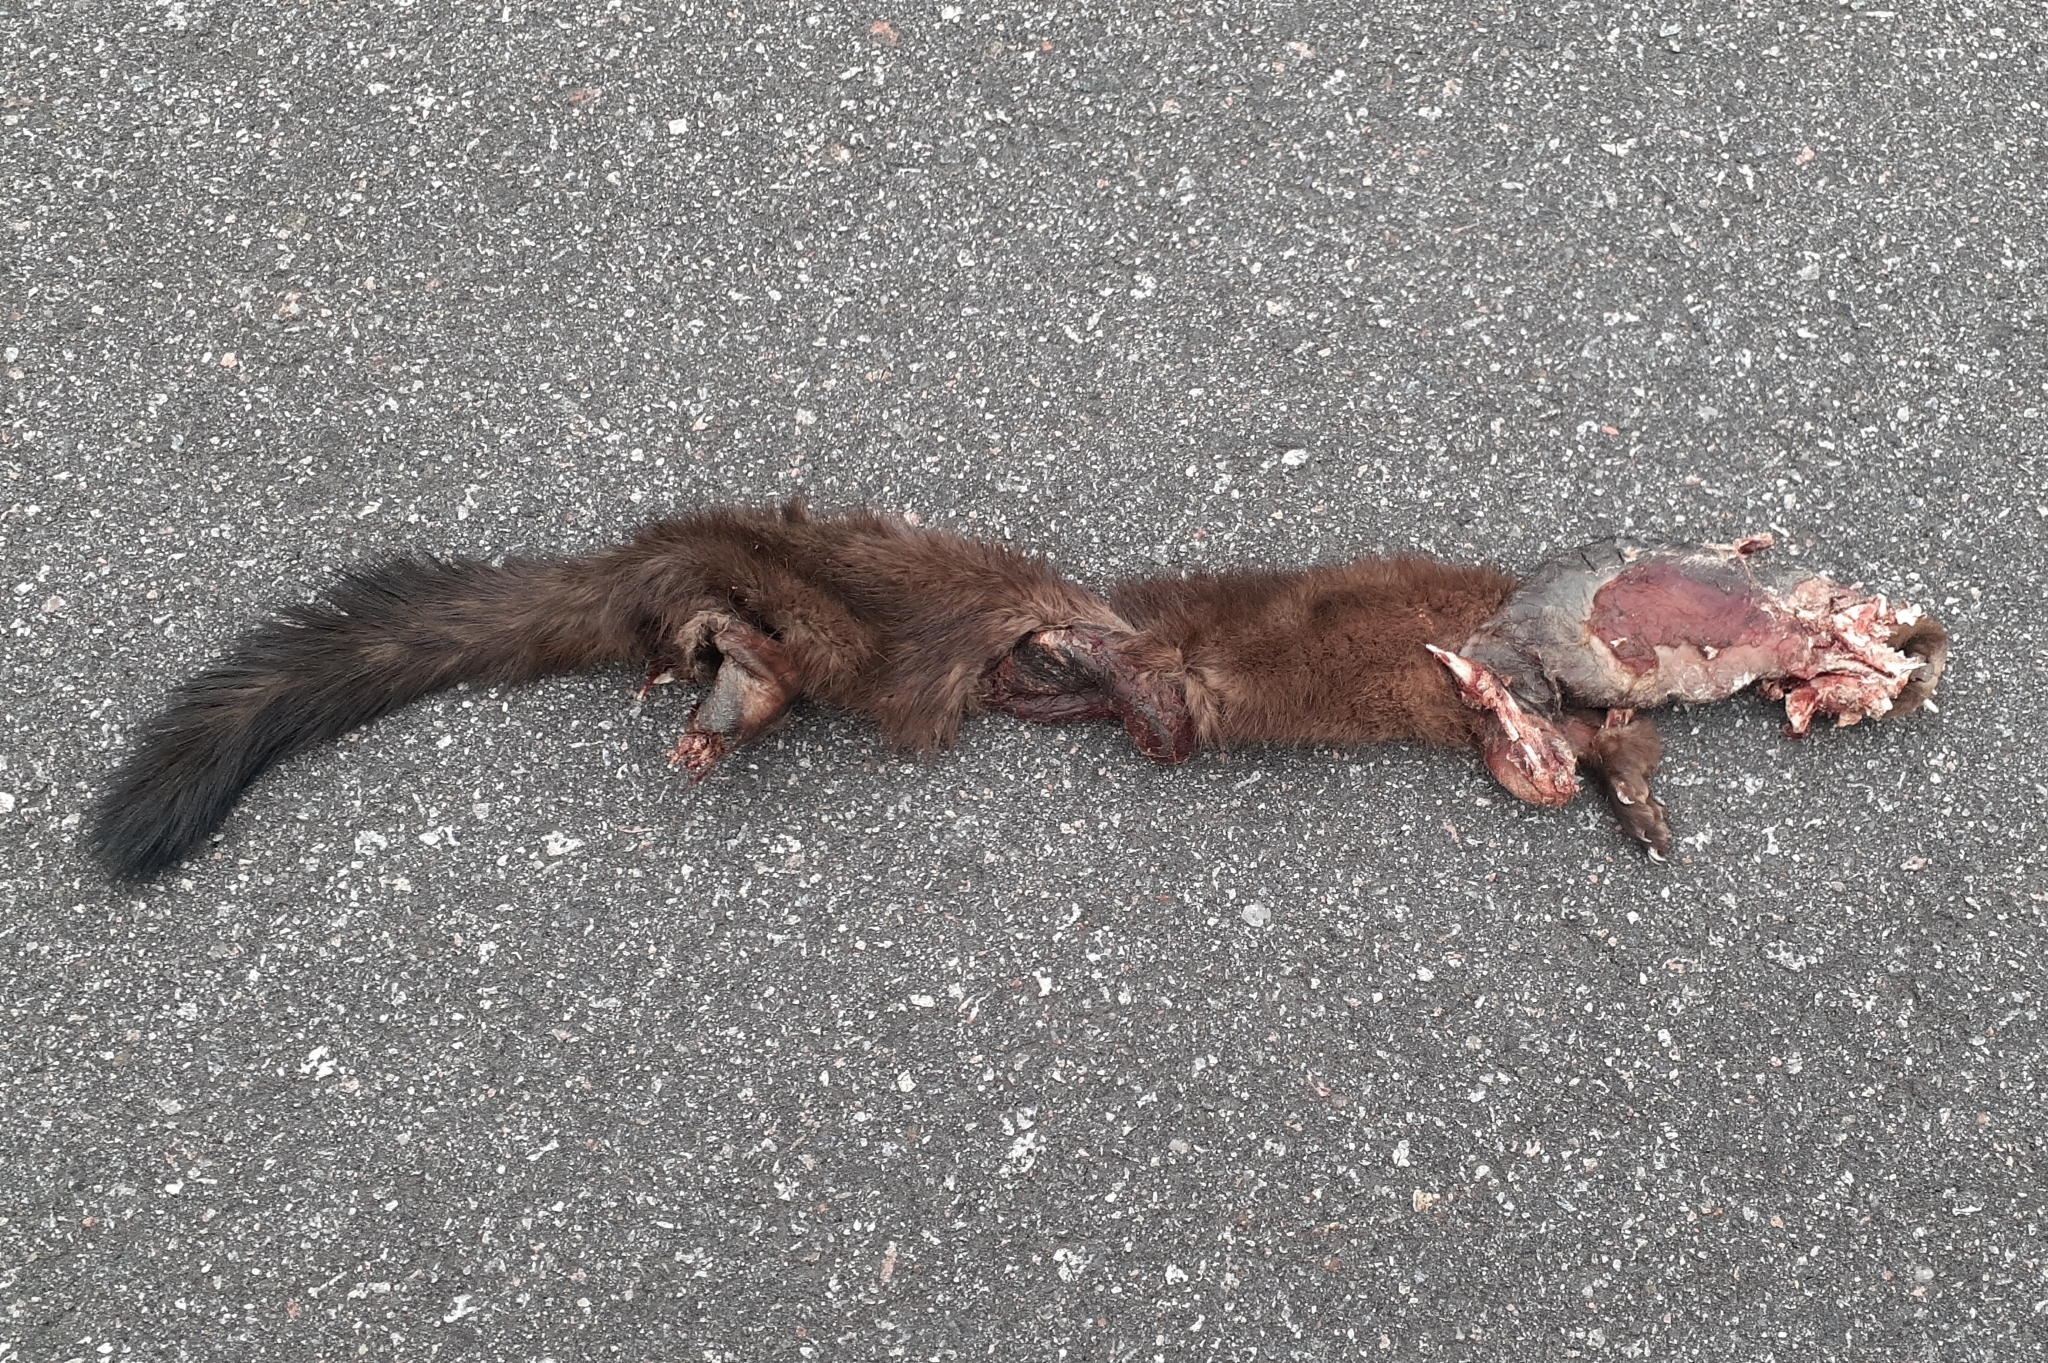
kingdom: Animalia
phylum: Chordata
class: Mammalia
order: Carnivora
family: Mustelidae
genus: Martes
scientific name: Martes americana
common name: American marten
